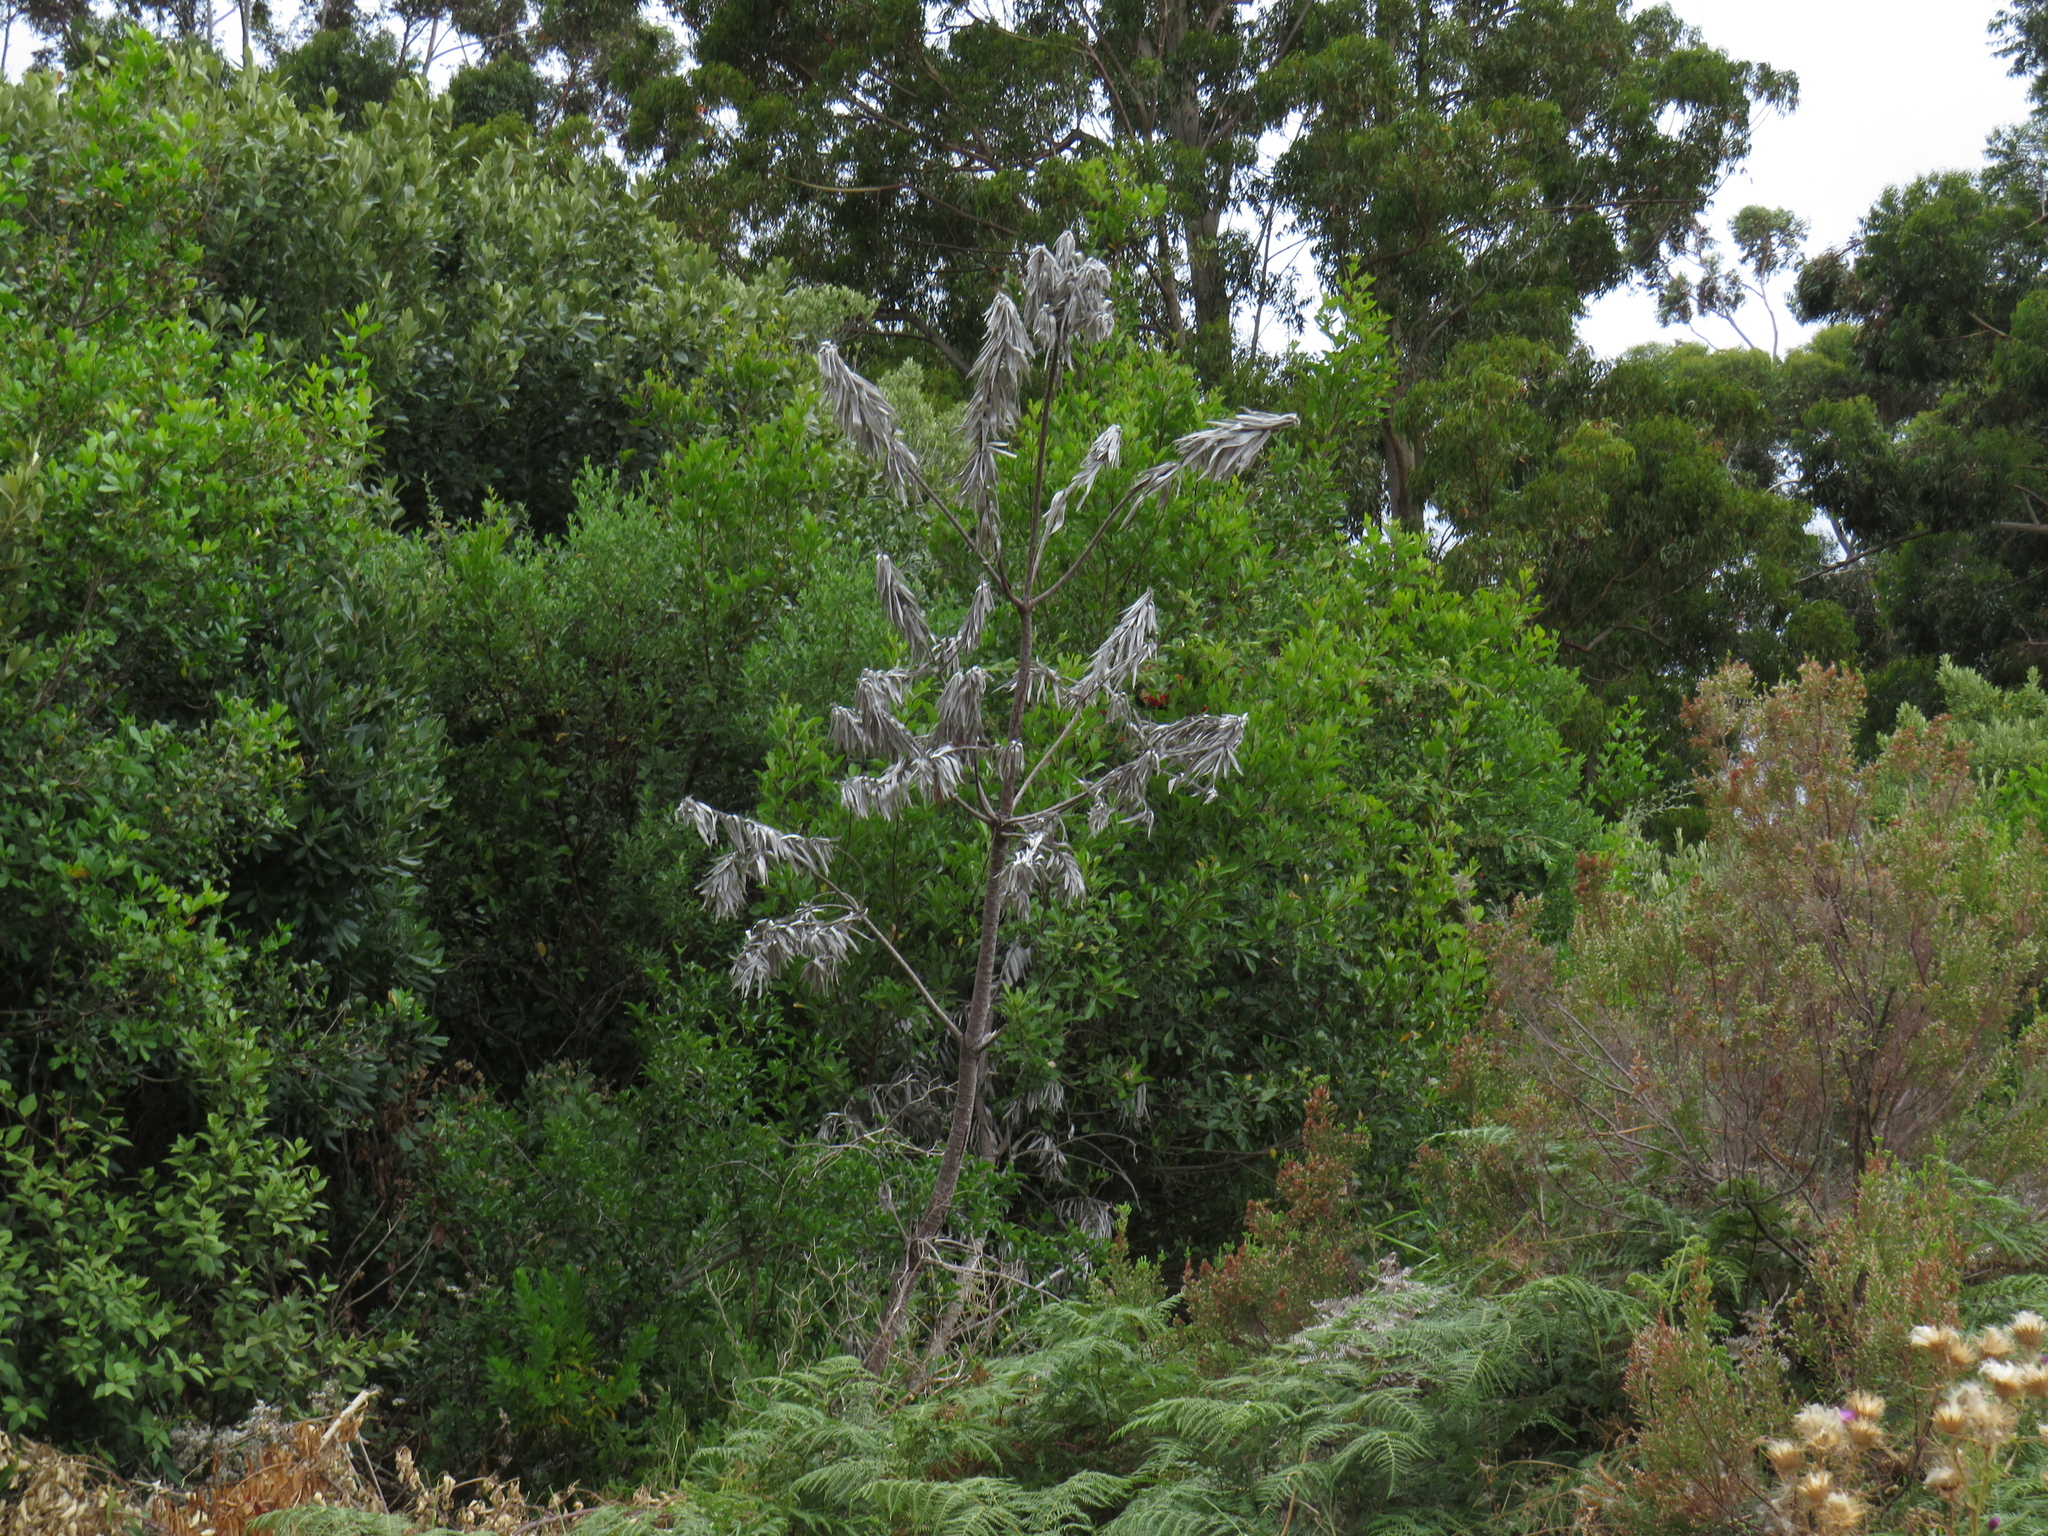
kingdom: Plantae
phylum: Tracheophyta
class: Magnoliopsida
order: Proteales
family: Proteaceae
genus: Leucadendron
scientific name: Leucadendron argenteum
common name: Cape silver tree
